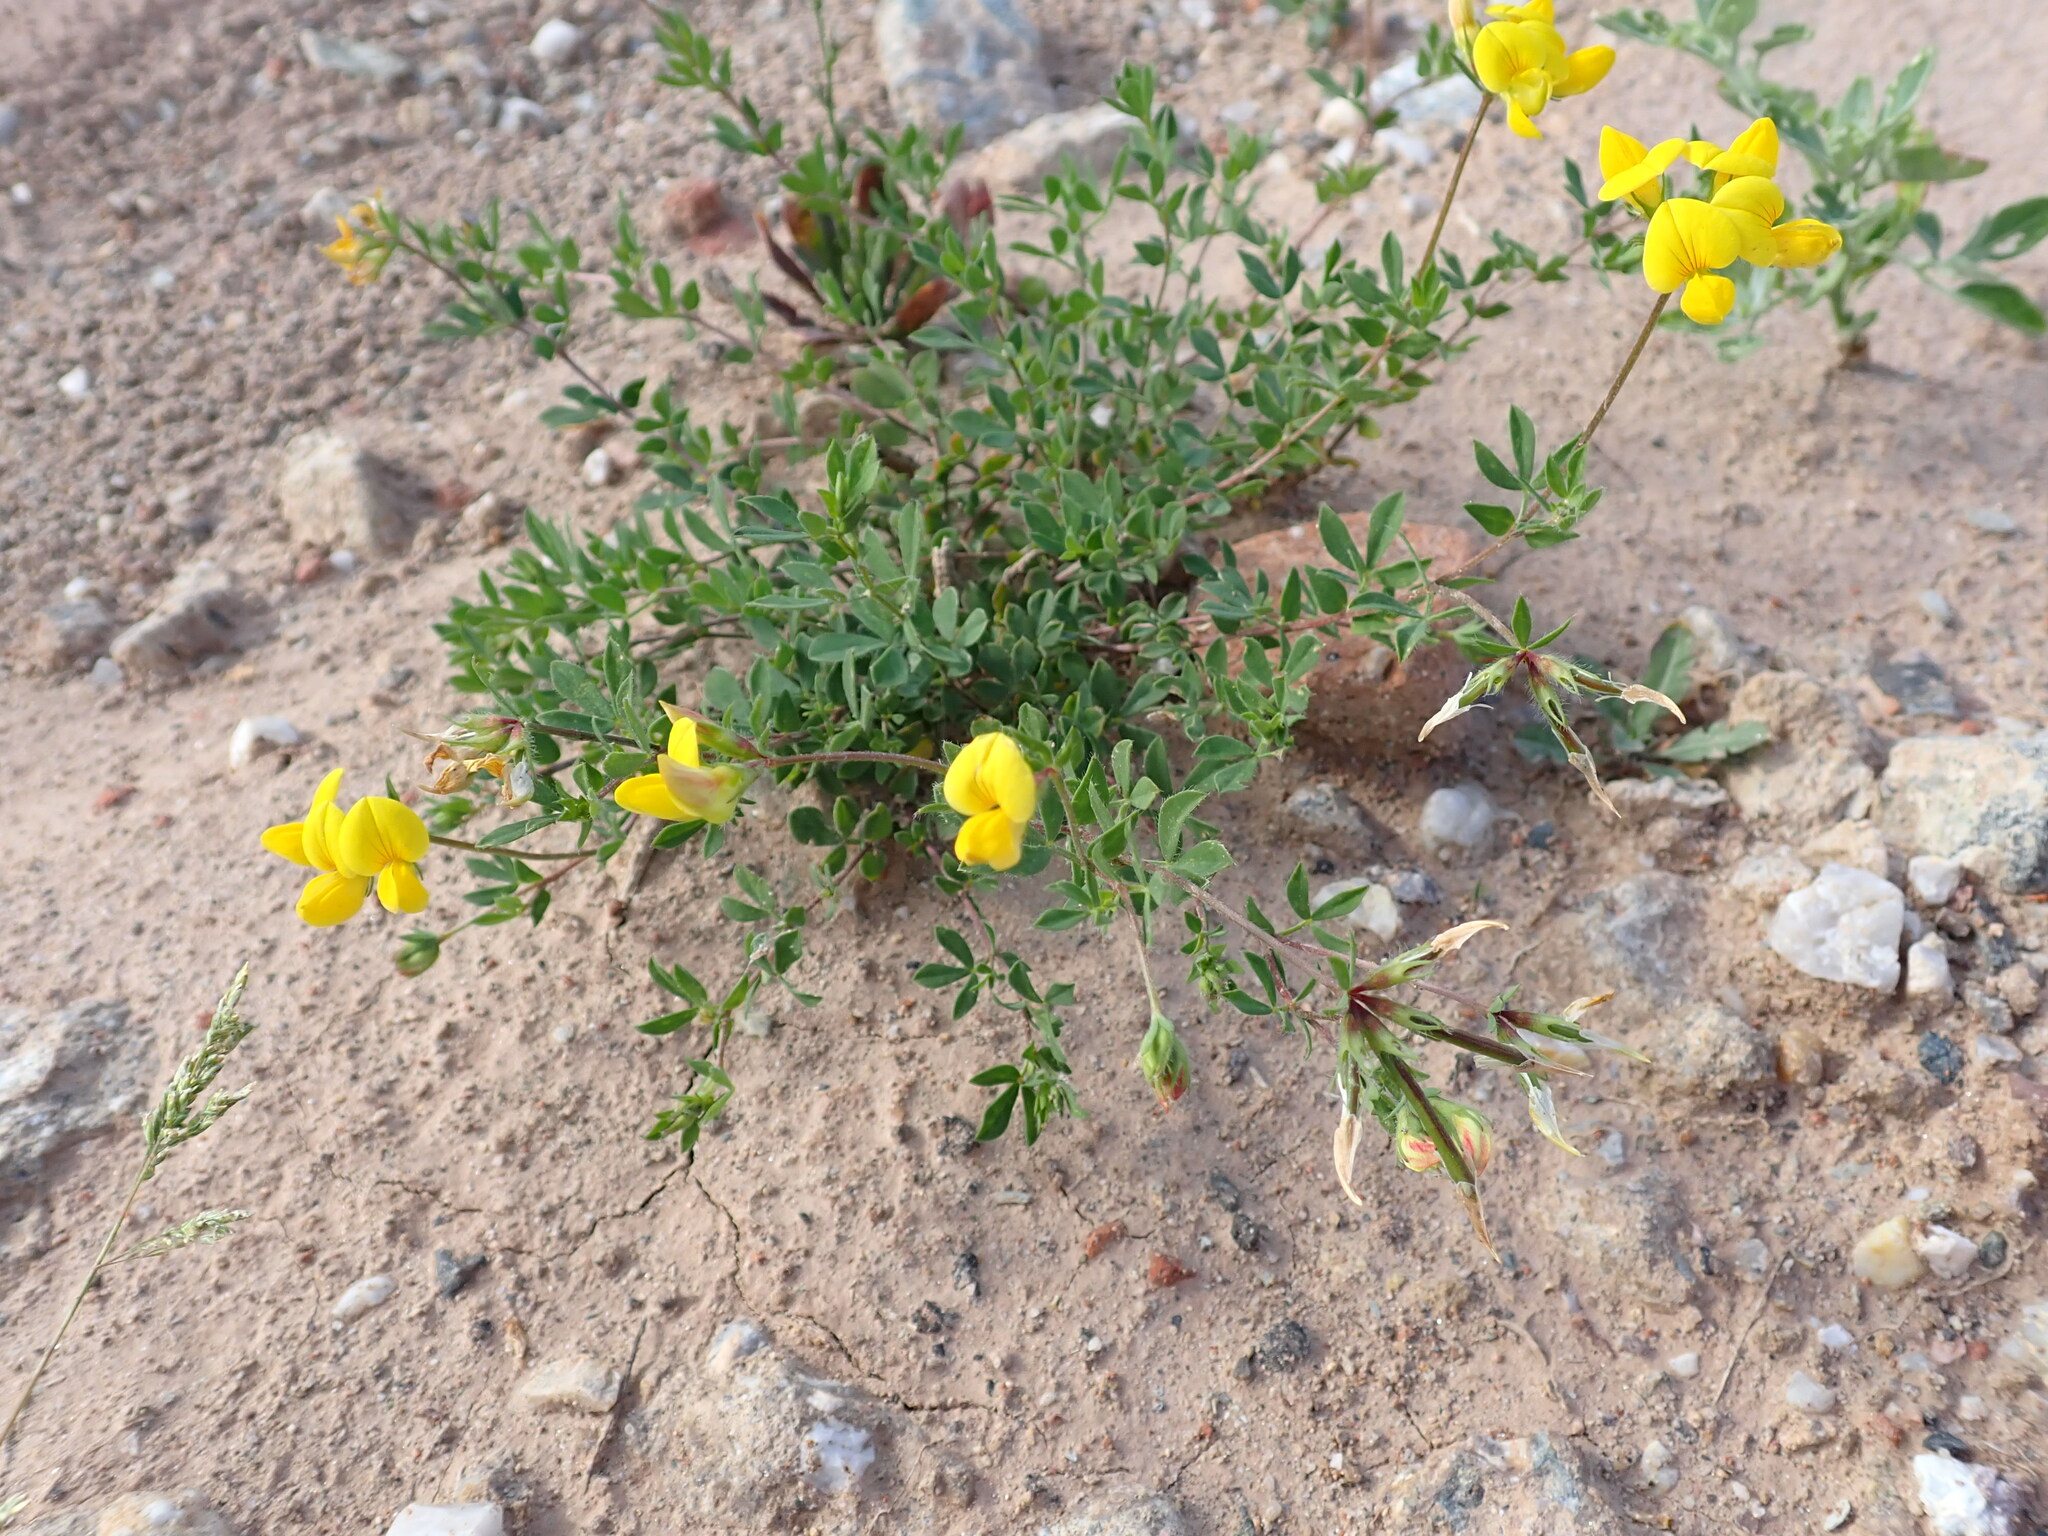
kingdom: Plantae
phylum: Tracheophyta
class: Magnoliopsida
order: Fabales
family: Fabaceae
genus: Lotus
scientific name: Lotus corniculatus
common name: Common bird's-foot-trefoil
